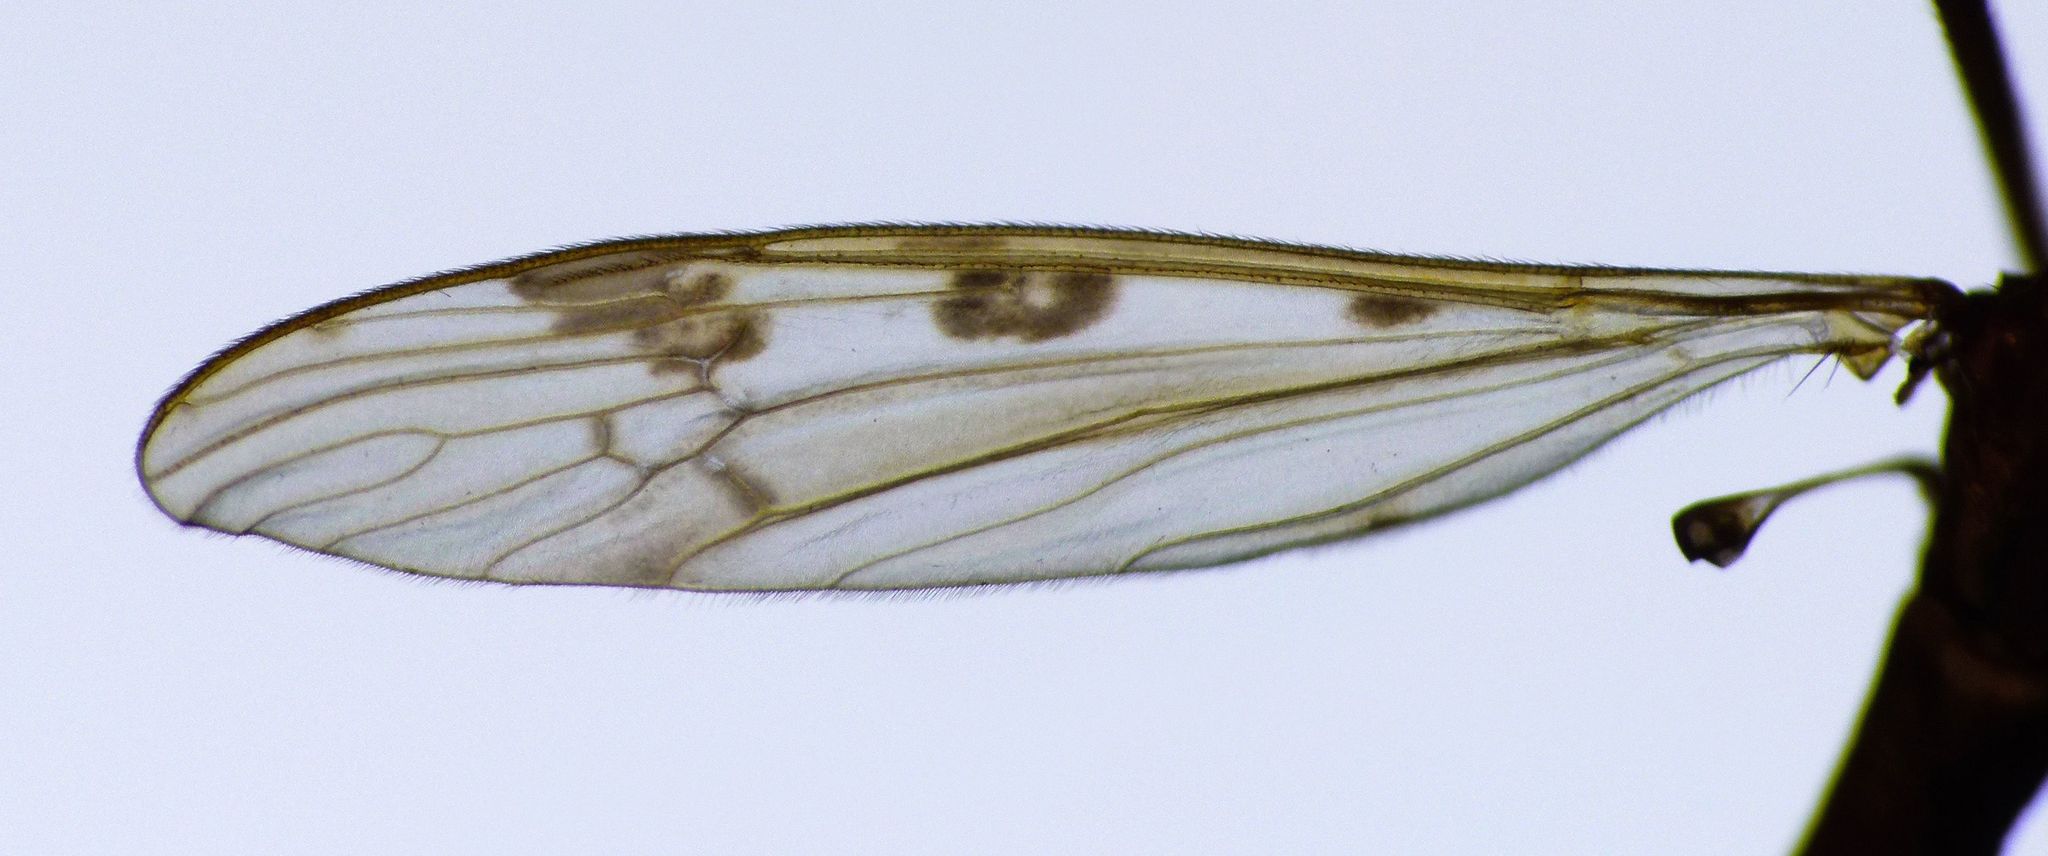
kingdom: Animalia
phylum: Arthropoda
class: Insecta
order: Diptera
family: Limoniidae
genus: Gynoplistia
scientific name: Gynoplistia notata
